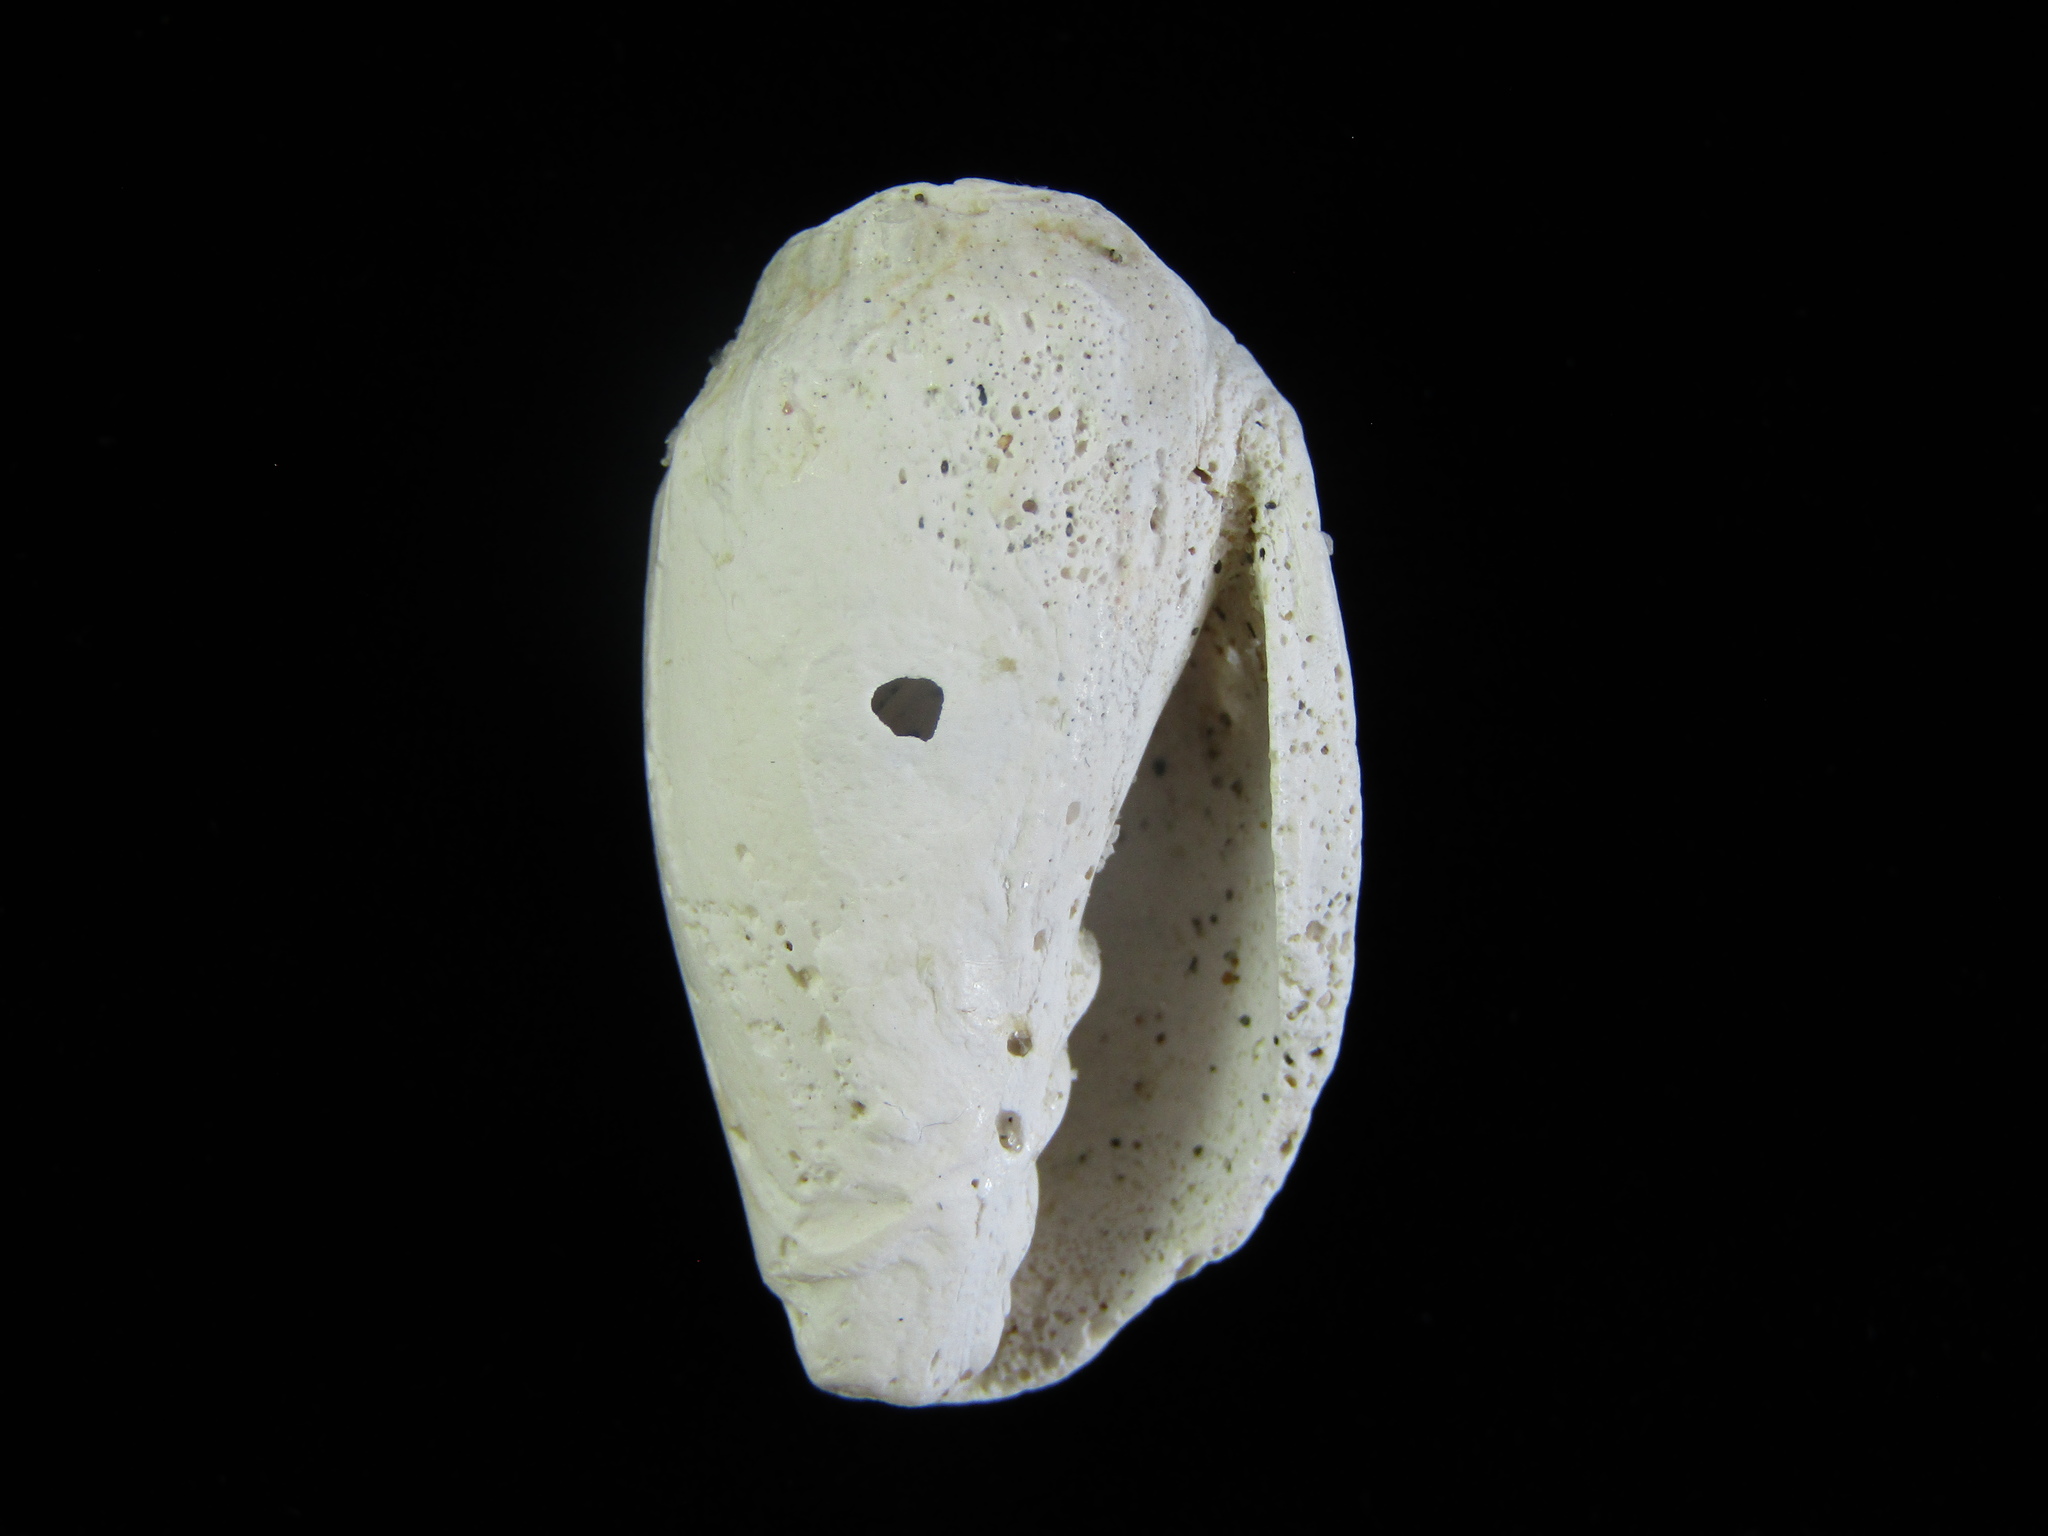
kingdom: Animalia
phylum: Mollusca
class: Gastropoda
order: Neogastropoda
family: Volutidae
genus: Alcithoe
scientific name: Alcithoe fusus
